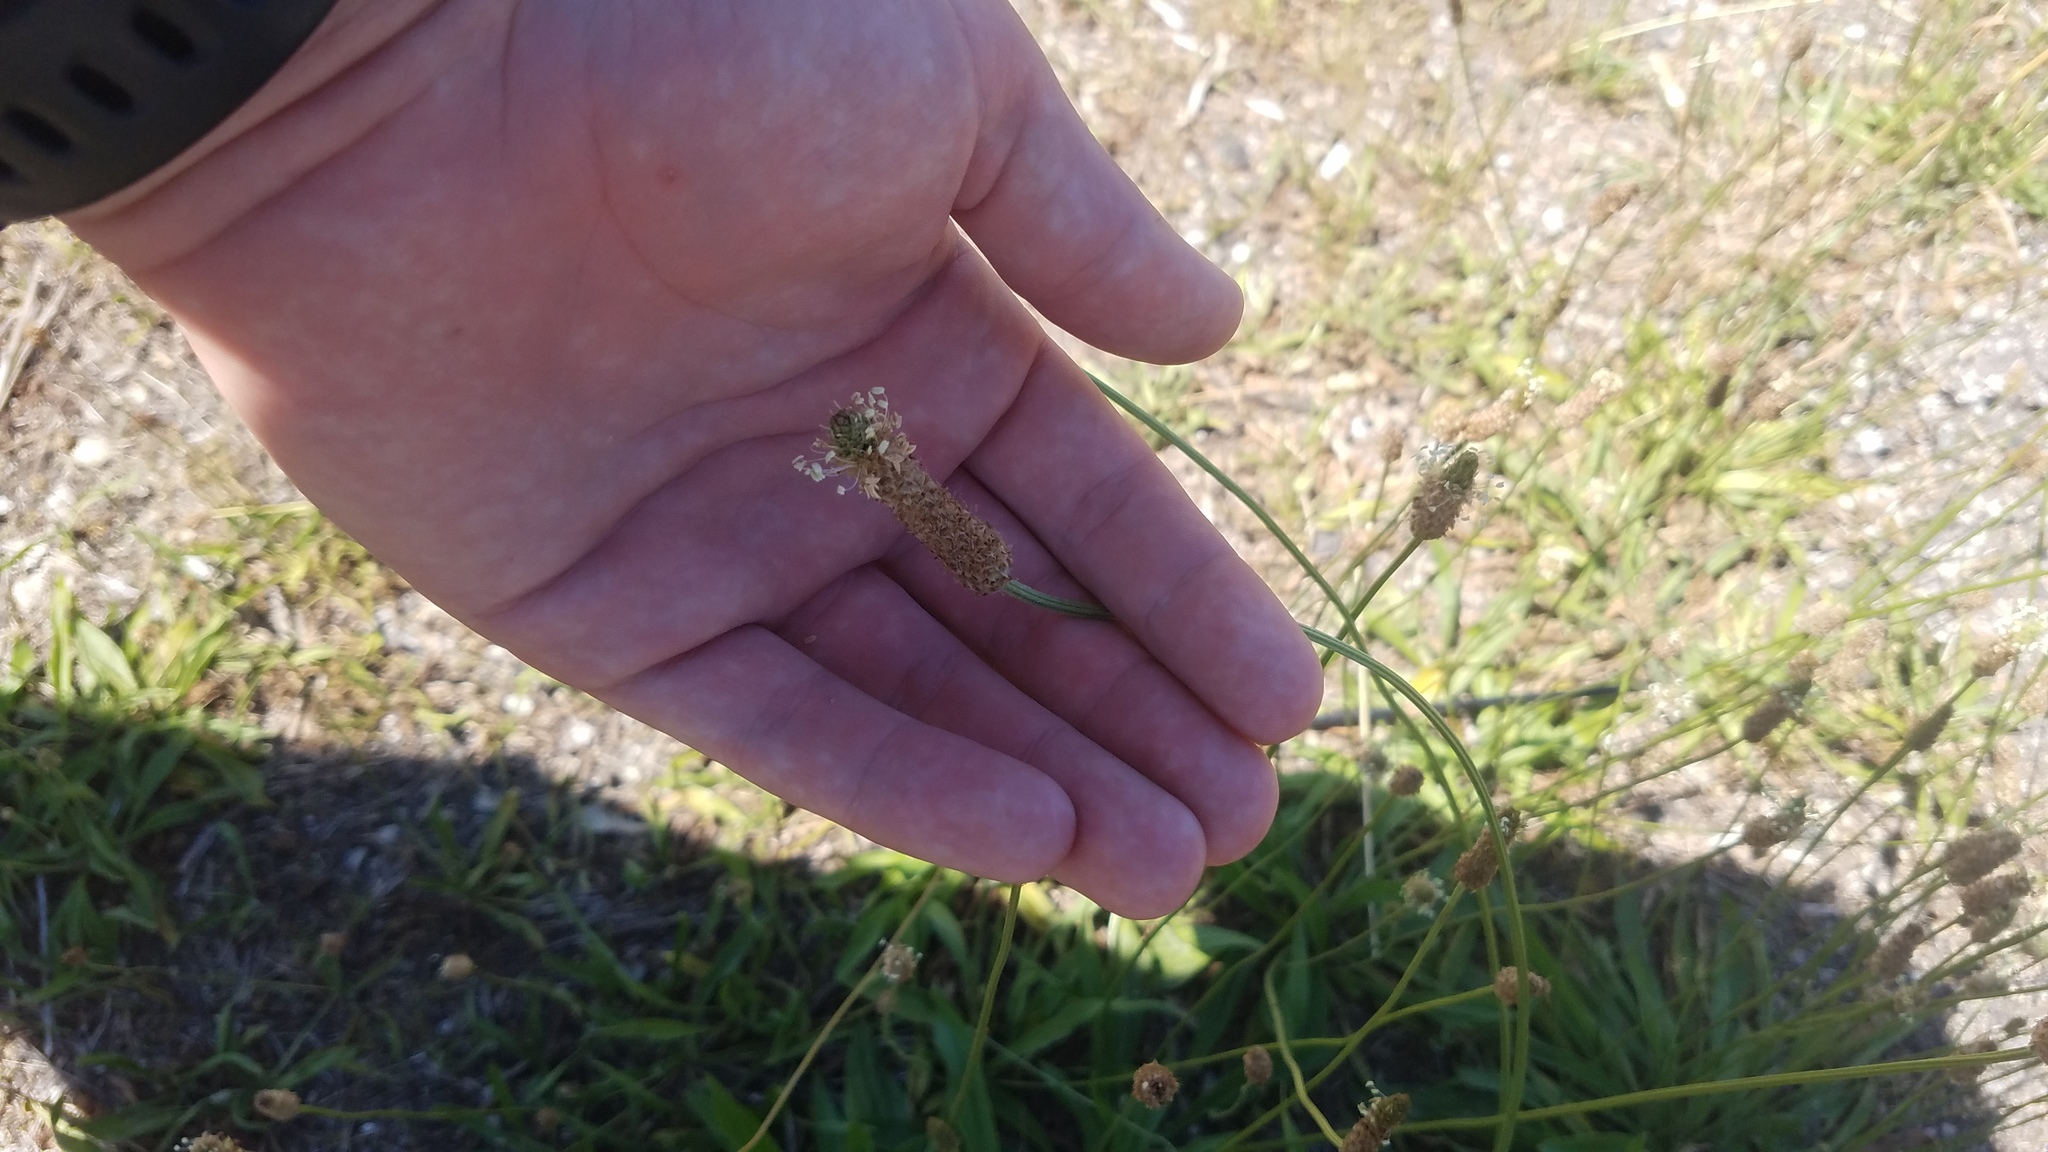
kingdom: Plantae
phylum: Tracheophyta
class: Magnoliopsida
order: Lamiales
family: Plantaginaceae
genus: Plantago
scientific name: Plantago lanceolata
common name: Ribwort plantain
